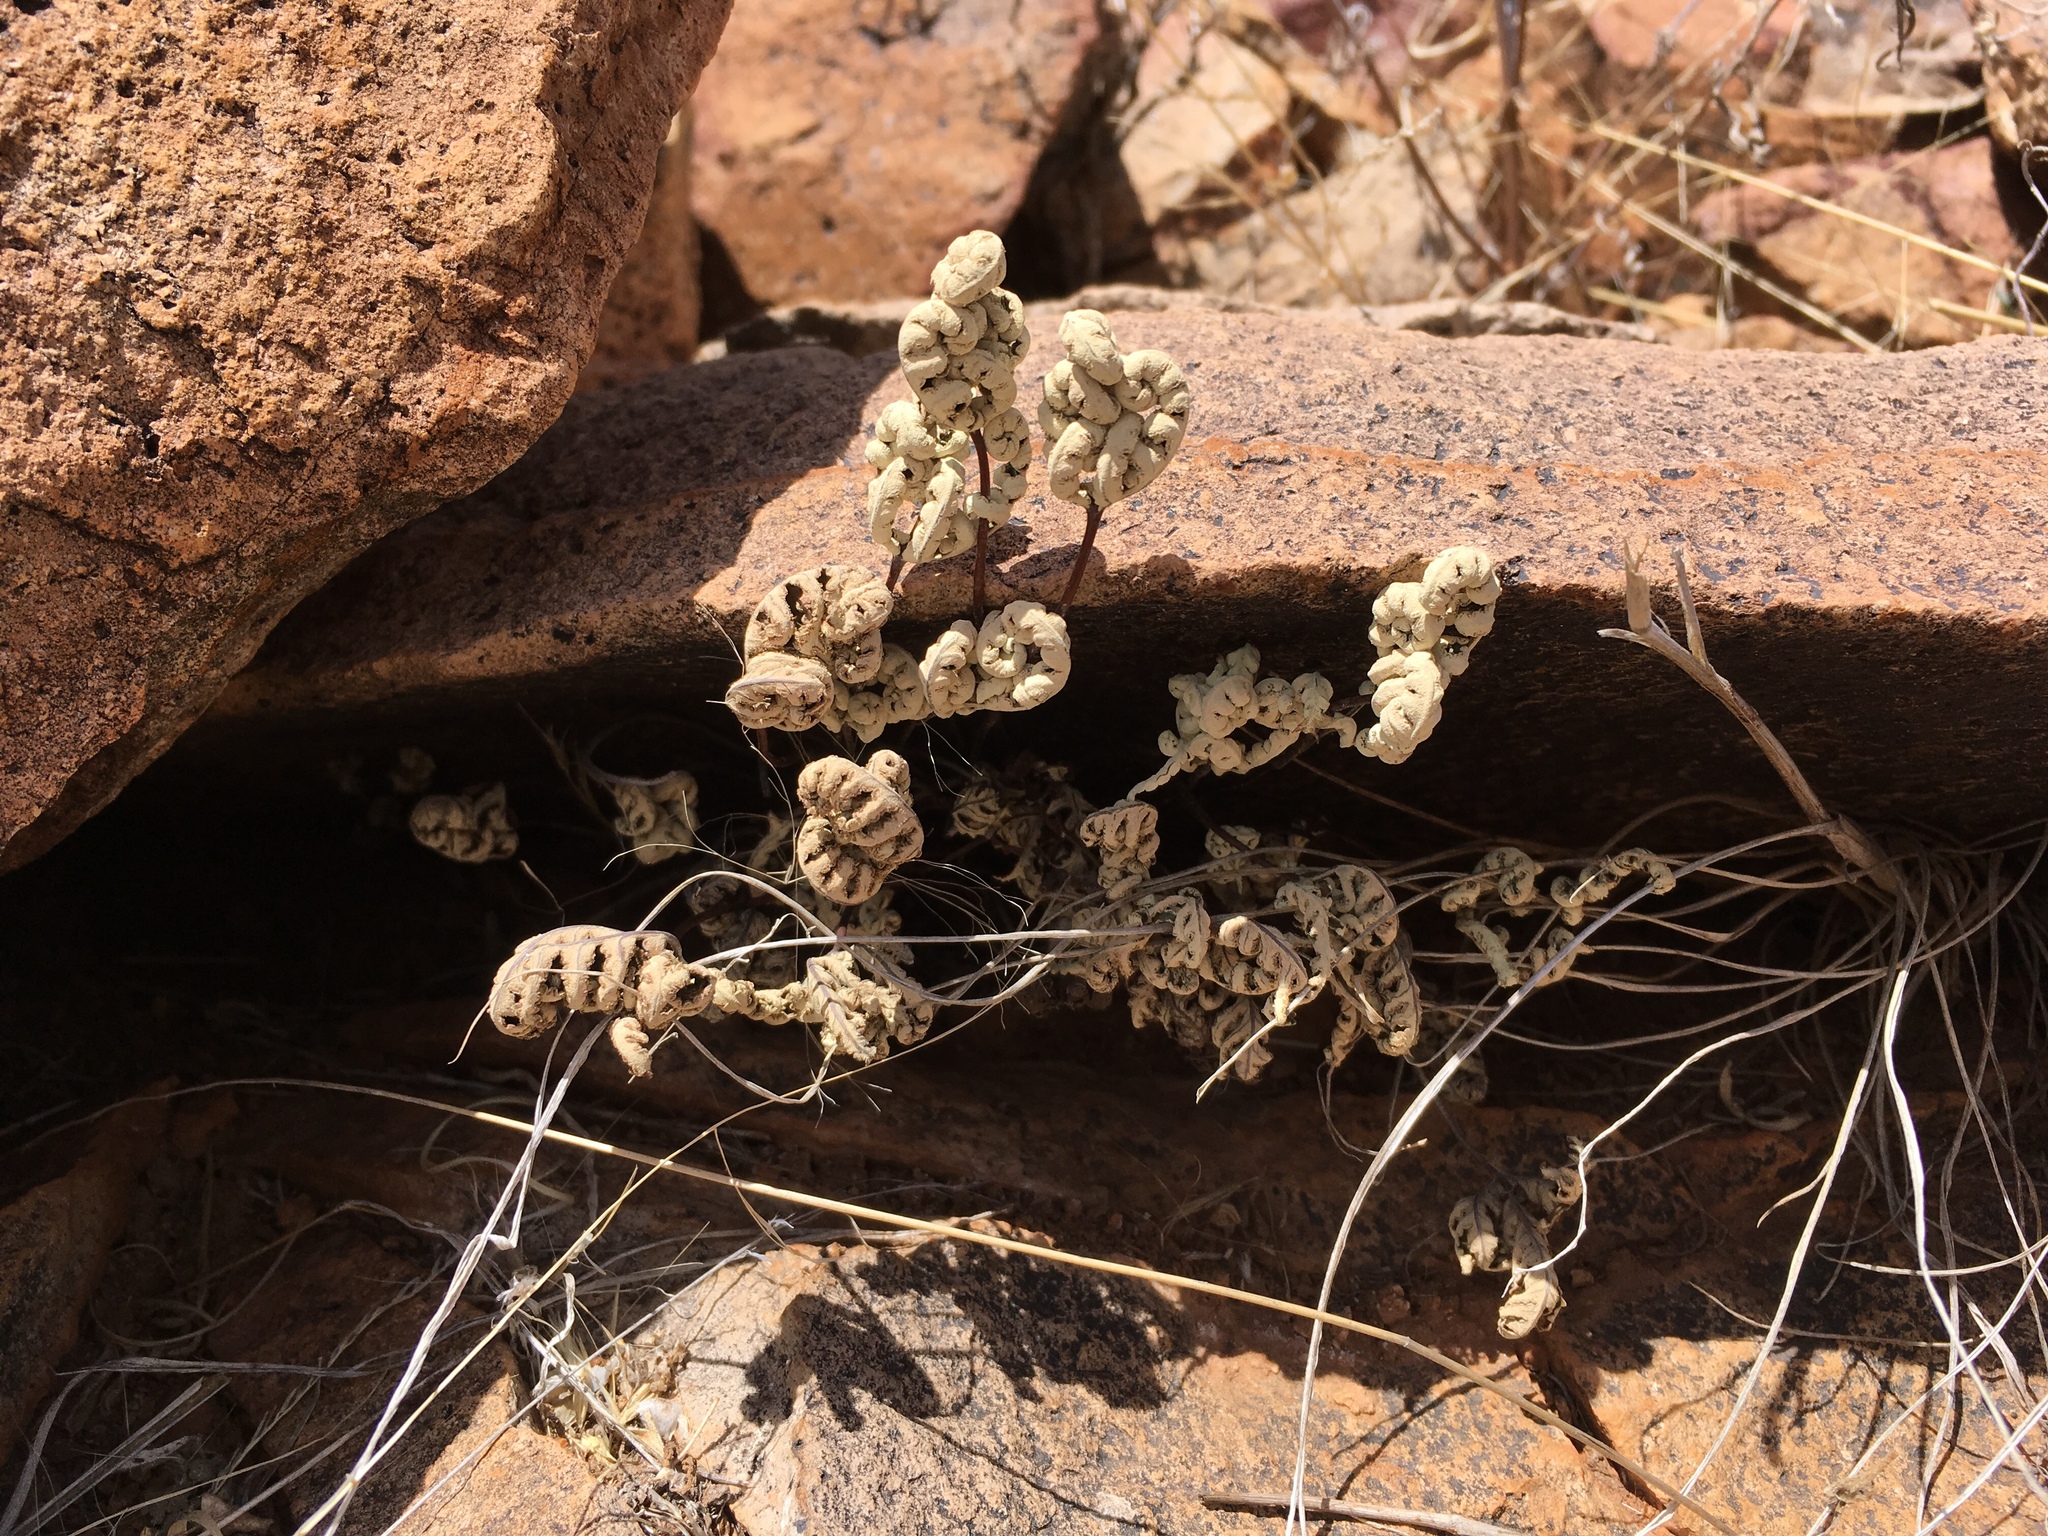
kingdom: Plantae
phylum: Tracheophyta
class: Polypodiopsida
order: Polypodiales
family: Pteridaceae
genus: Notholaena
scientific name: Notholaena standleyi
